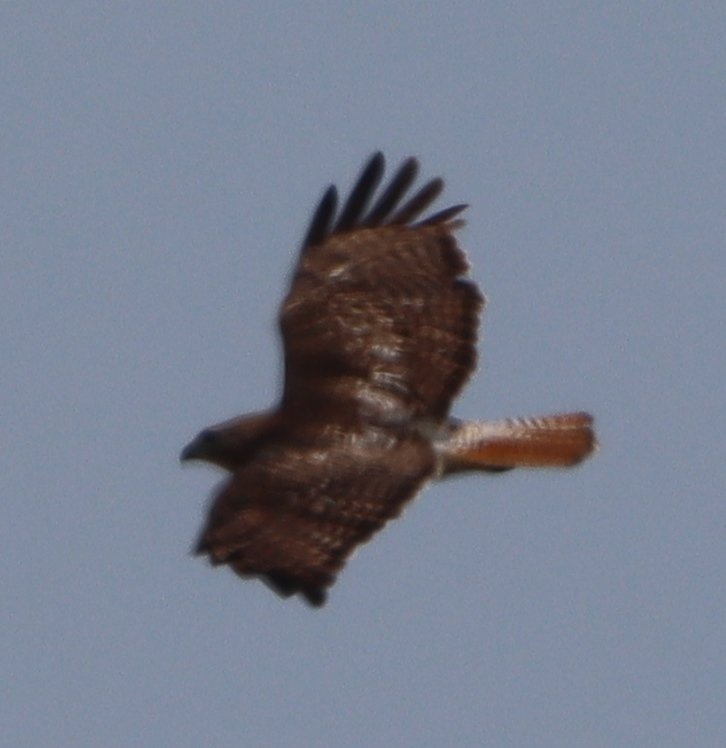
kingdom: Animalia
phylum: Chordata
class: Aves
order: Accipitriformes
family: Accipitridae
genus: Buteo
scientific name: Buteo jamaicensis
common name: Red-tailed hawk
